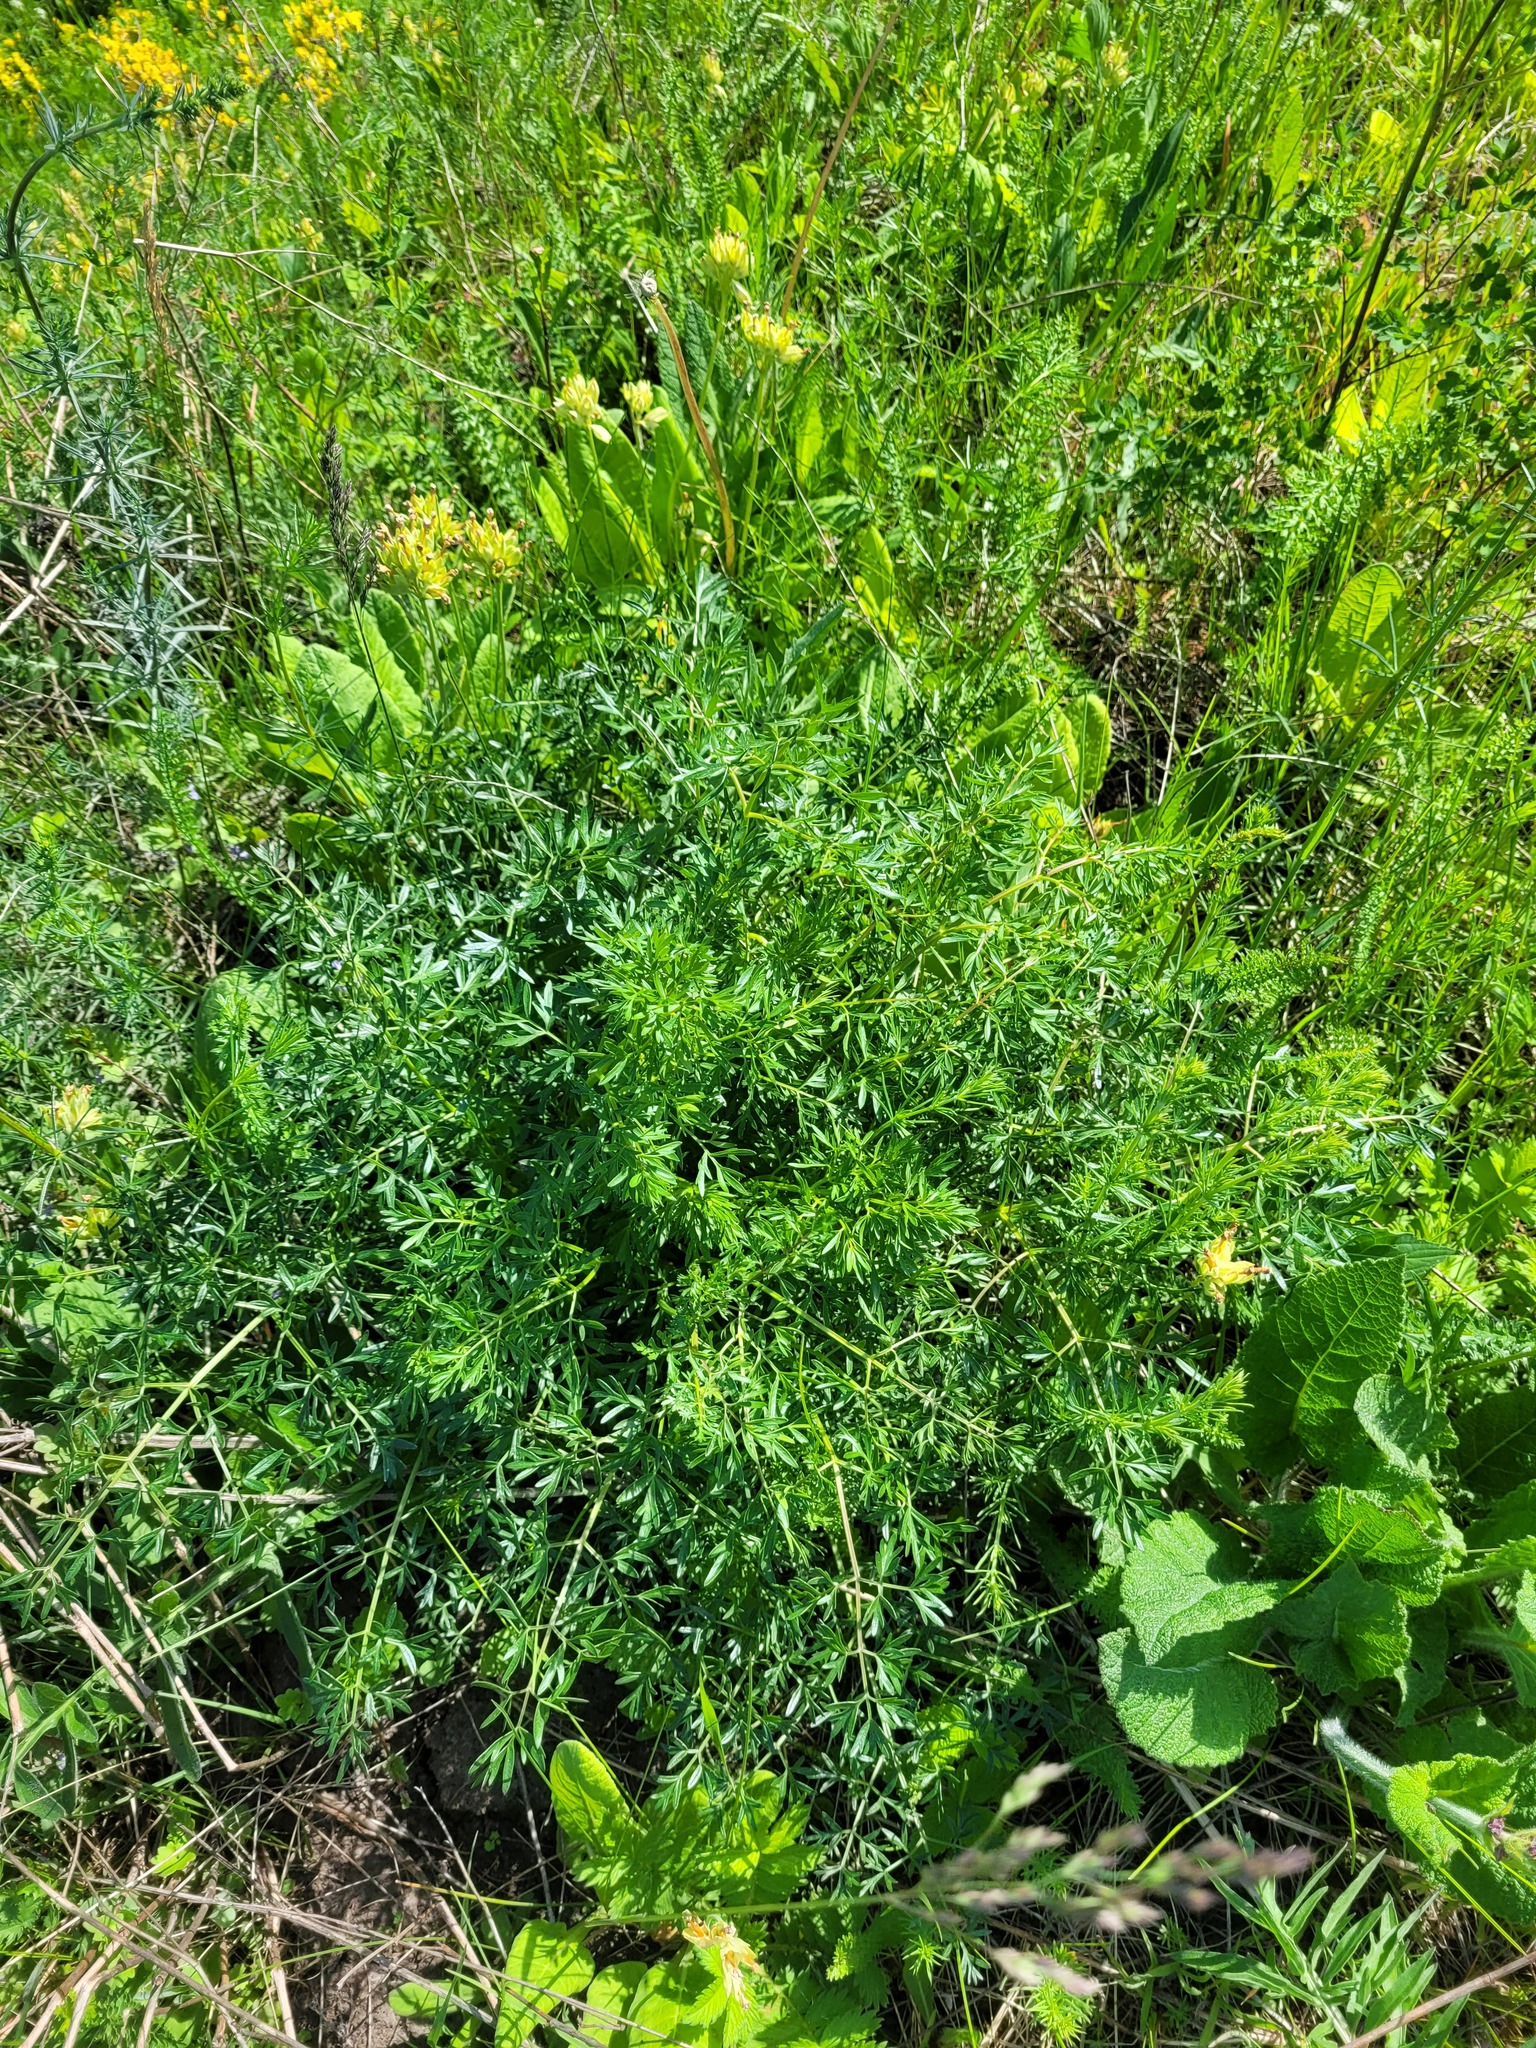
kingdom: Plantae
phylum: Tracheophyta
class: Magnoliopsida
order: Apiales
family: Apiaceae
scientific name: Apiaceae
